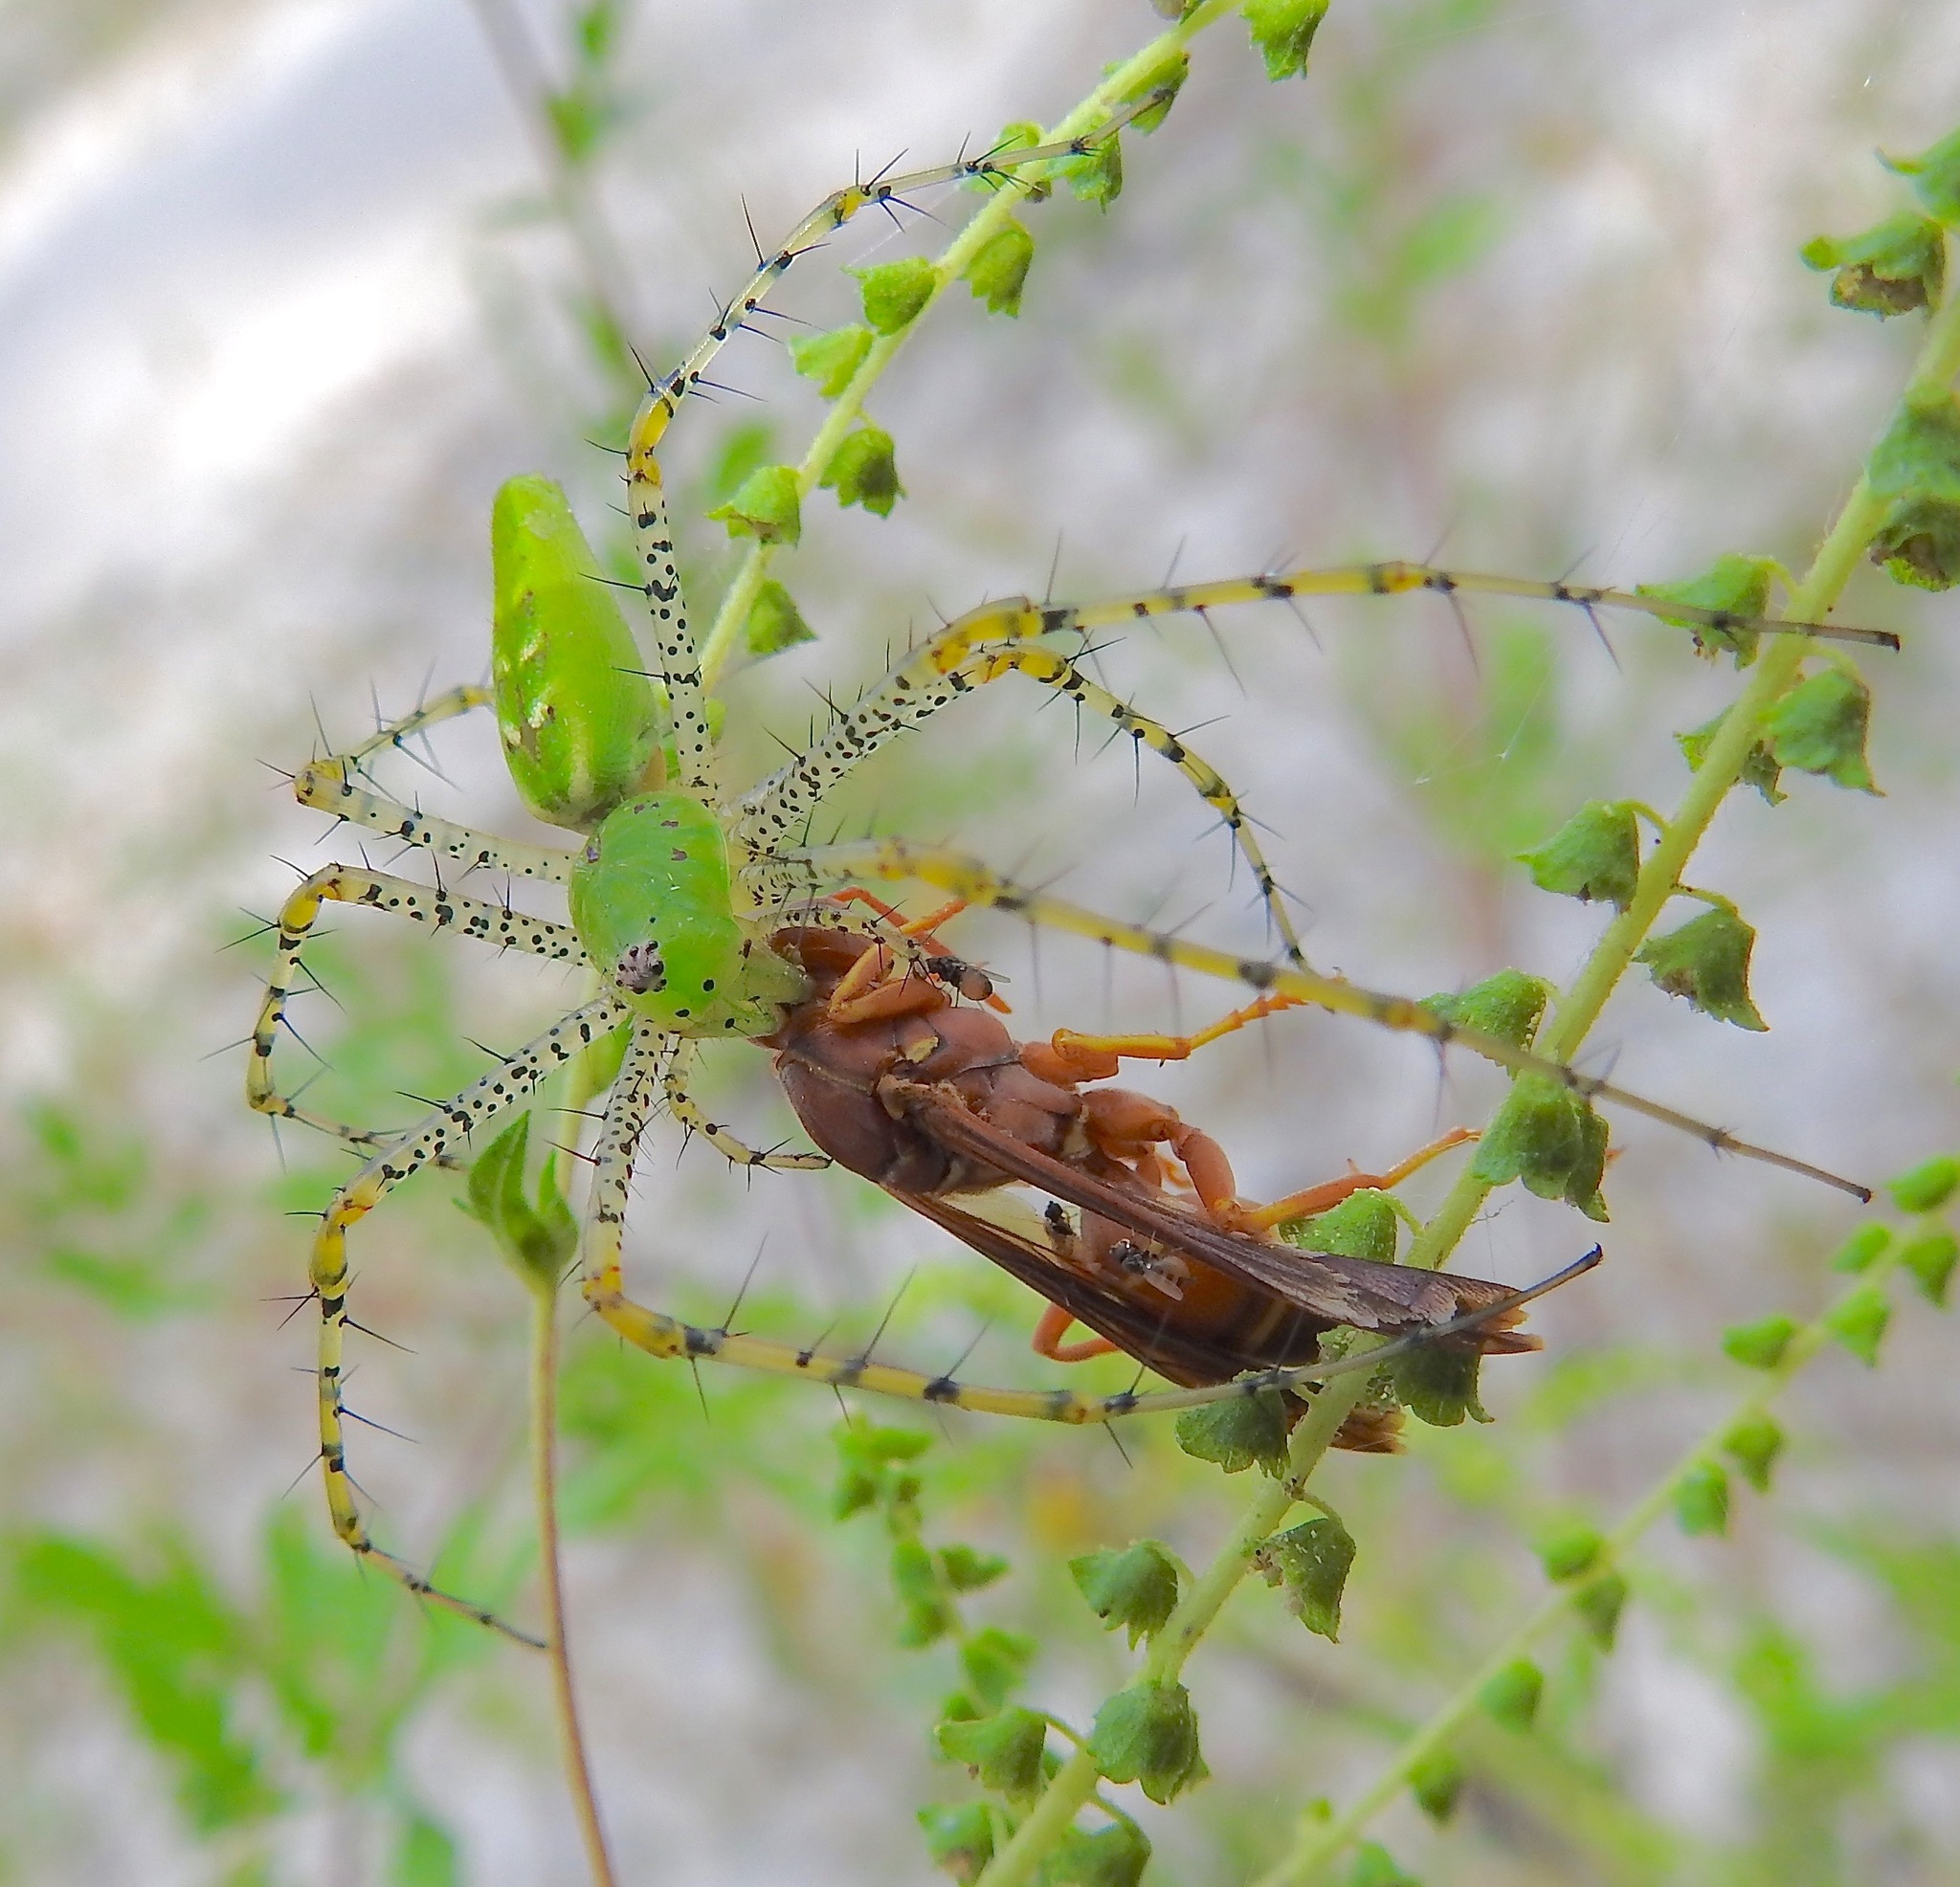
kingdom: Animalia
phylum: Arthropoda
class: Arachnida
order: Araneae
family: Oxyopidae
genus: Peucetia
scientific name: Peucetia viridans
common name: Lynx spiders
